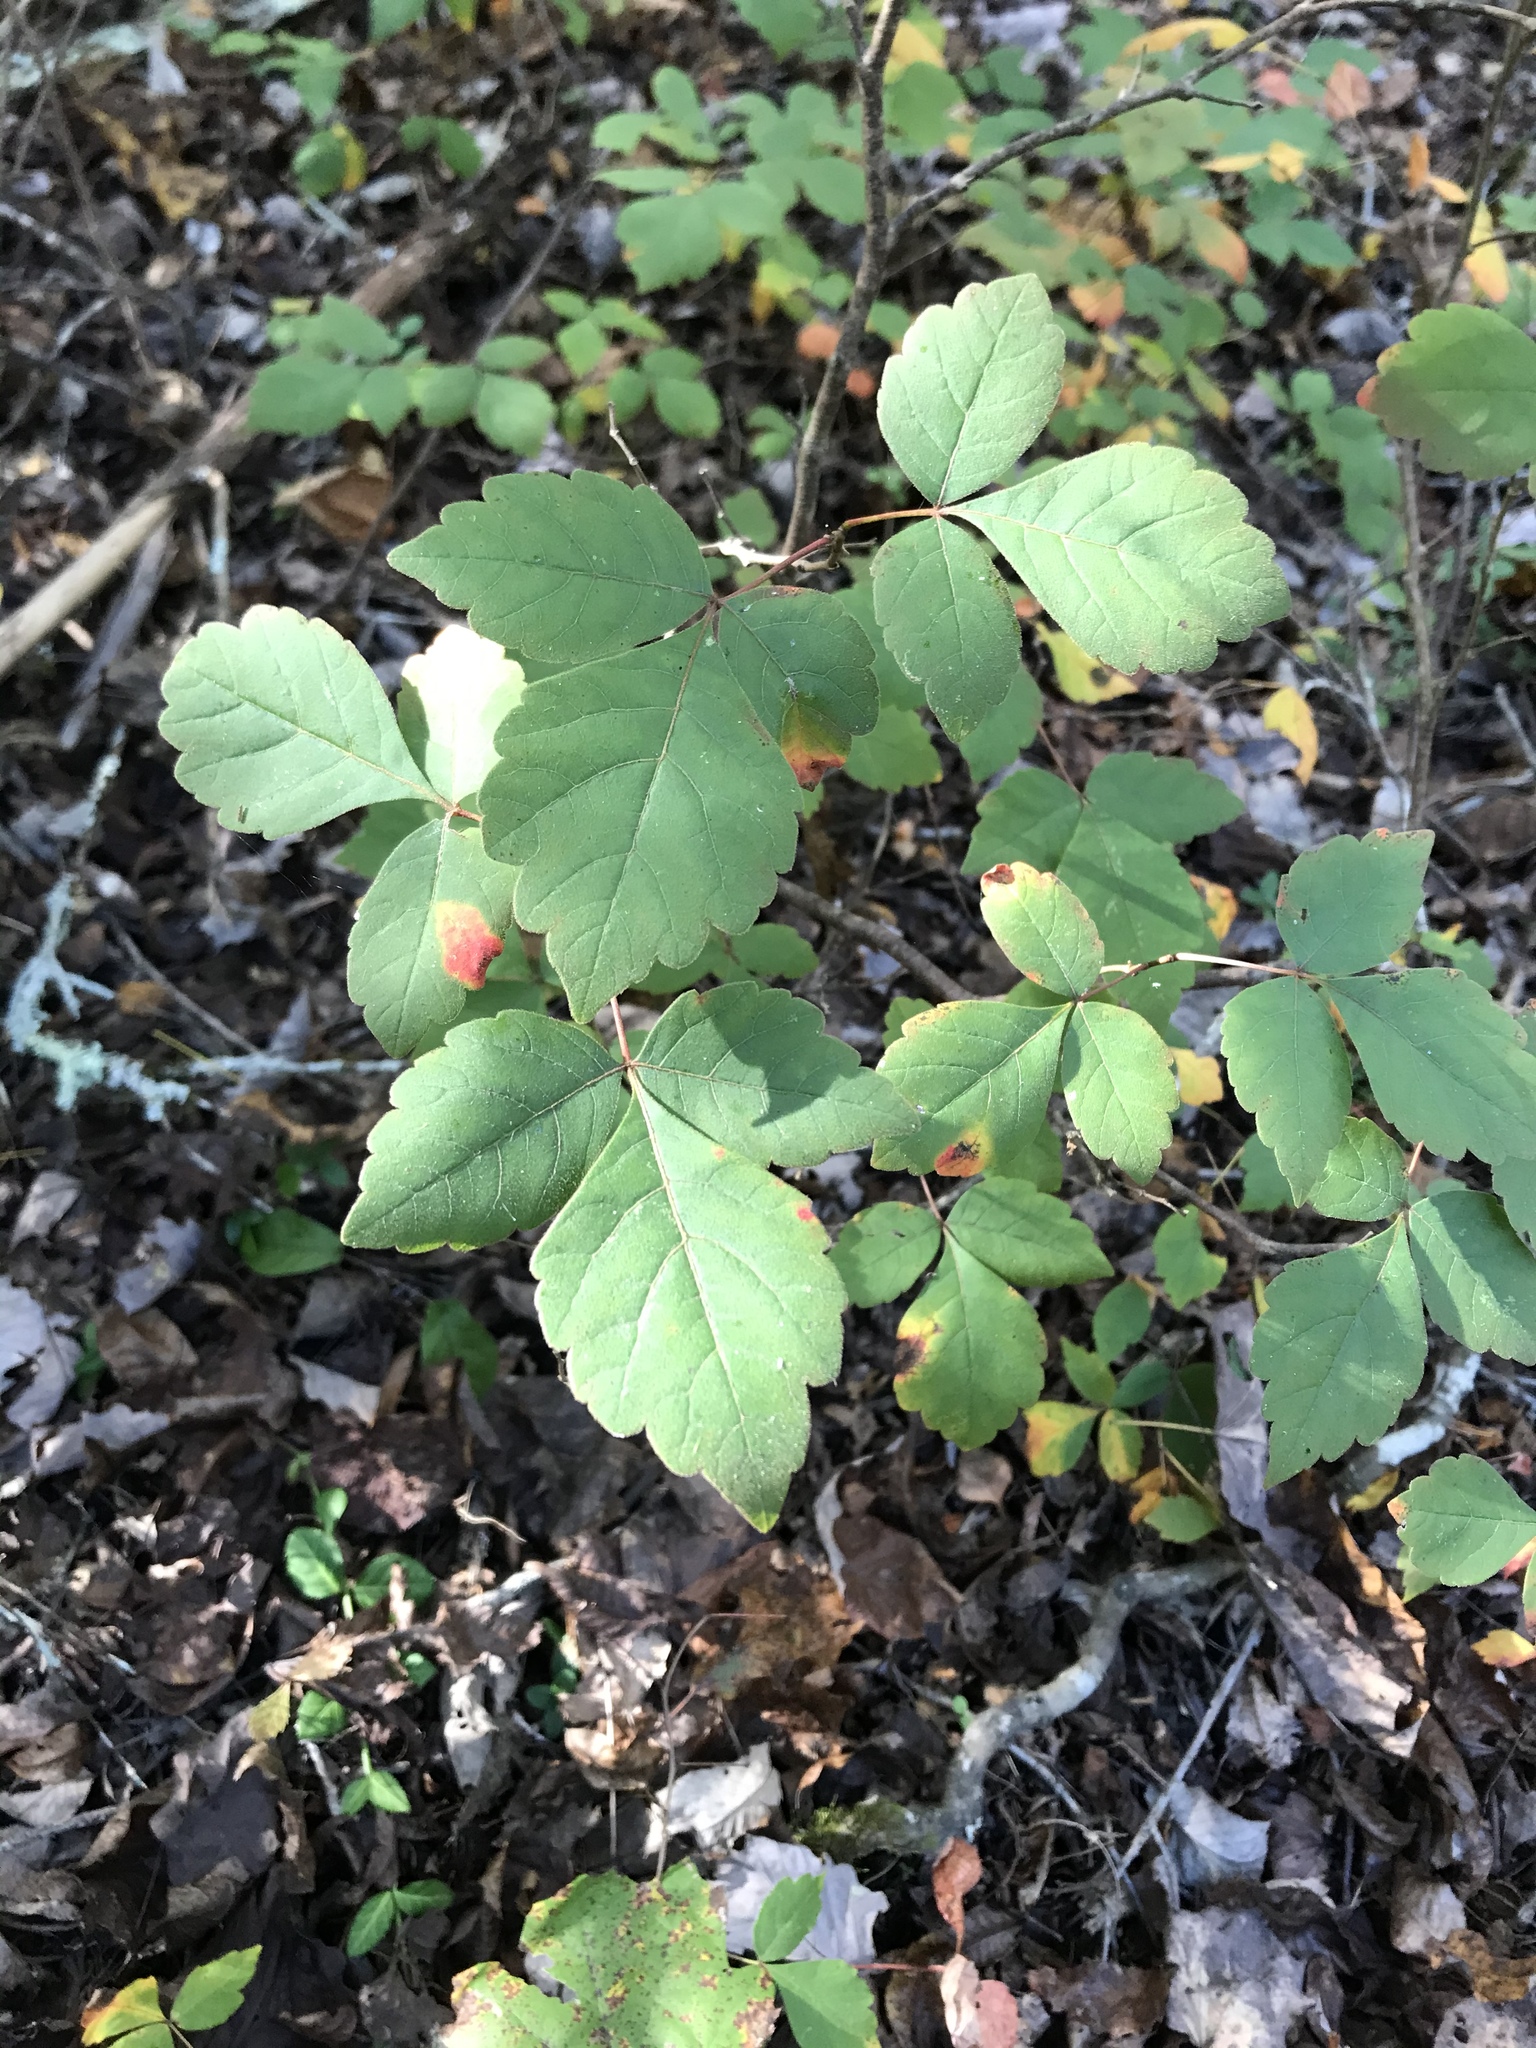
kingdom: Plantae
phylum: Tracheophyta
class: Magnoliopsida
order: Sapindales
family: Anacardiaceae
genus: Rhus
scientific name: Rhus aromatica
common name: Aromatic sumac
